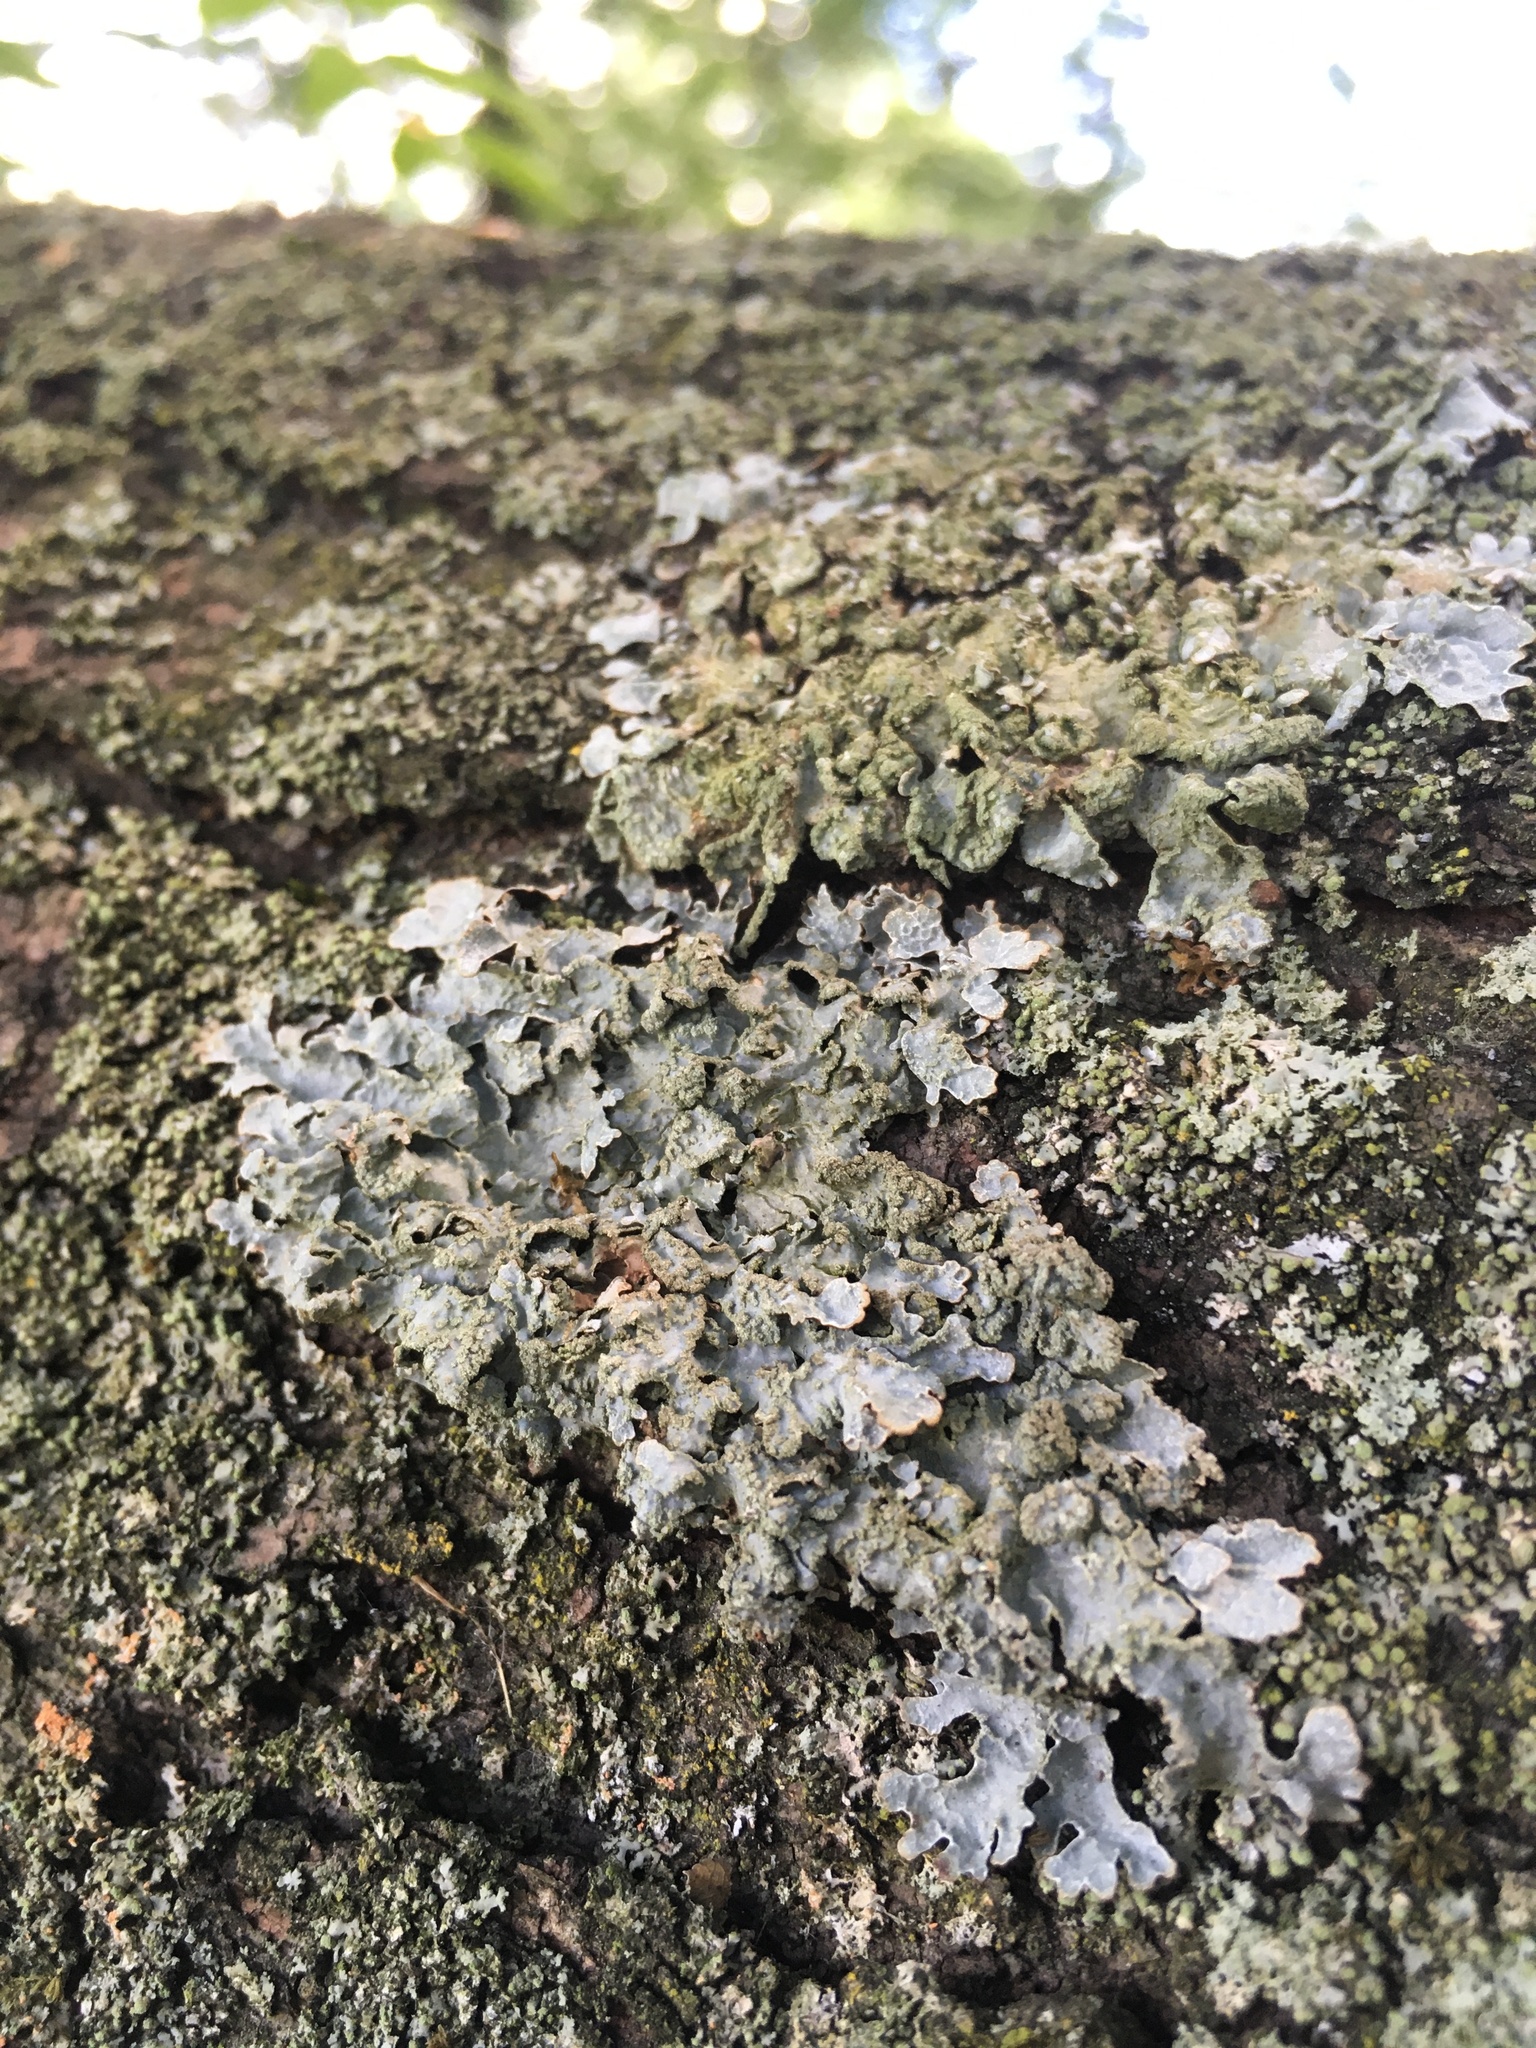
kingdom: Fungi
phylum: Ascomycota
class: Lecanoromycetes
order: Lecanorales
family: Parmeliaceae
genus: Parmelia
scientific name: Parmelia sulcata
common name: Netted shield lichen
